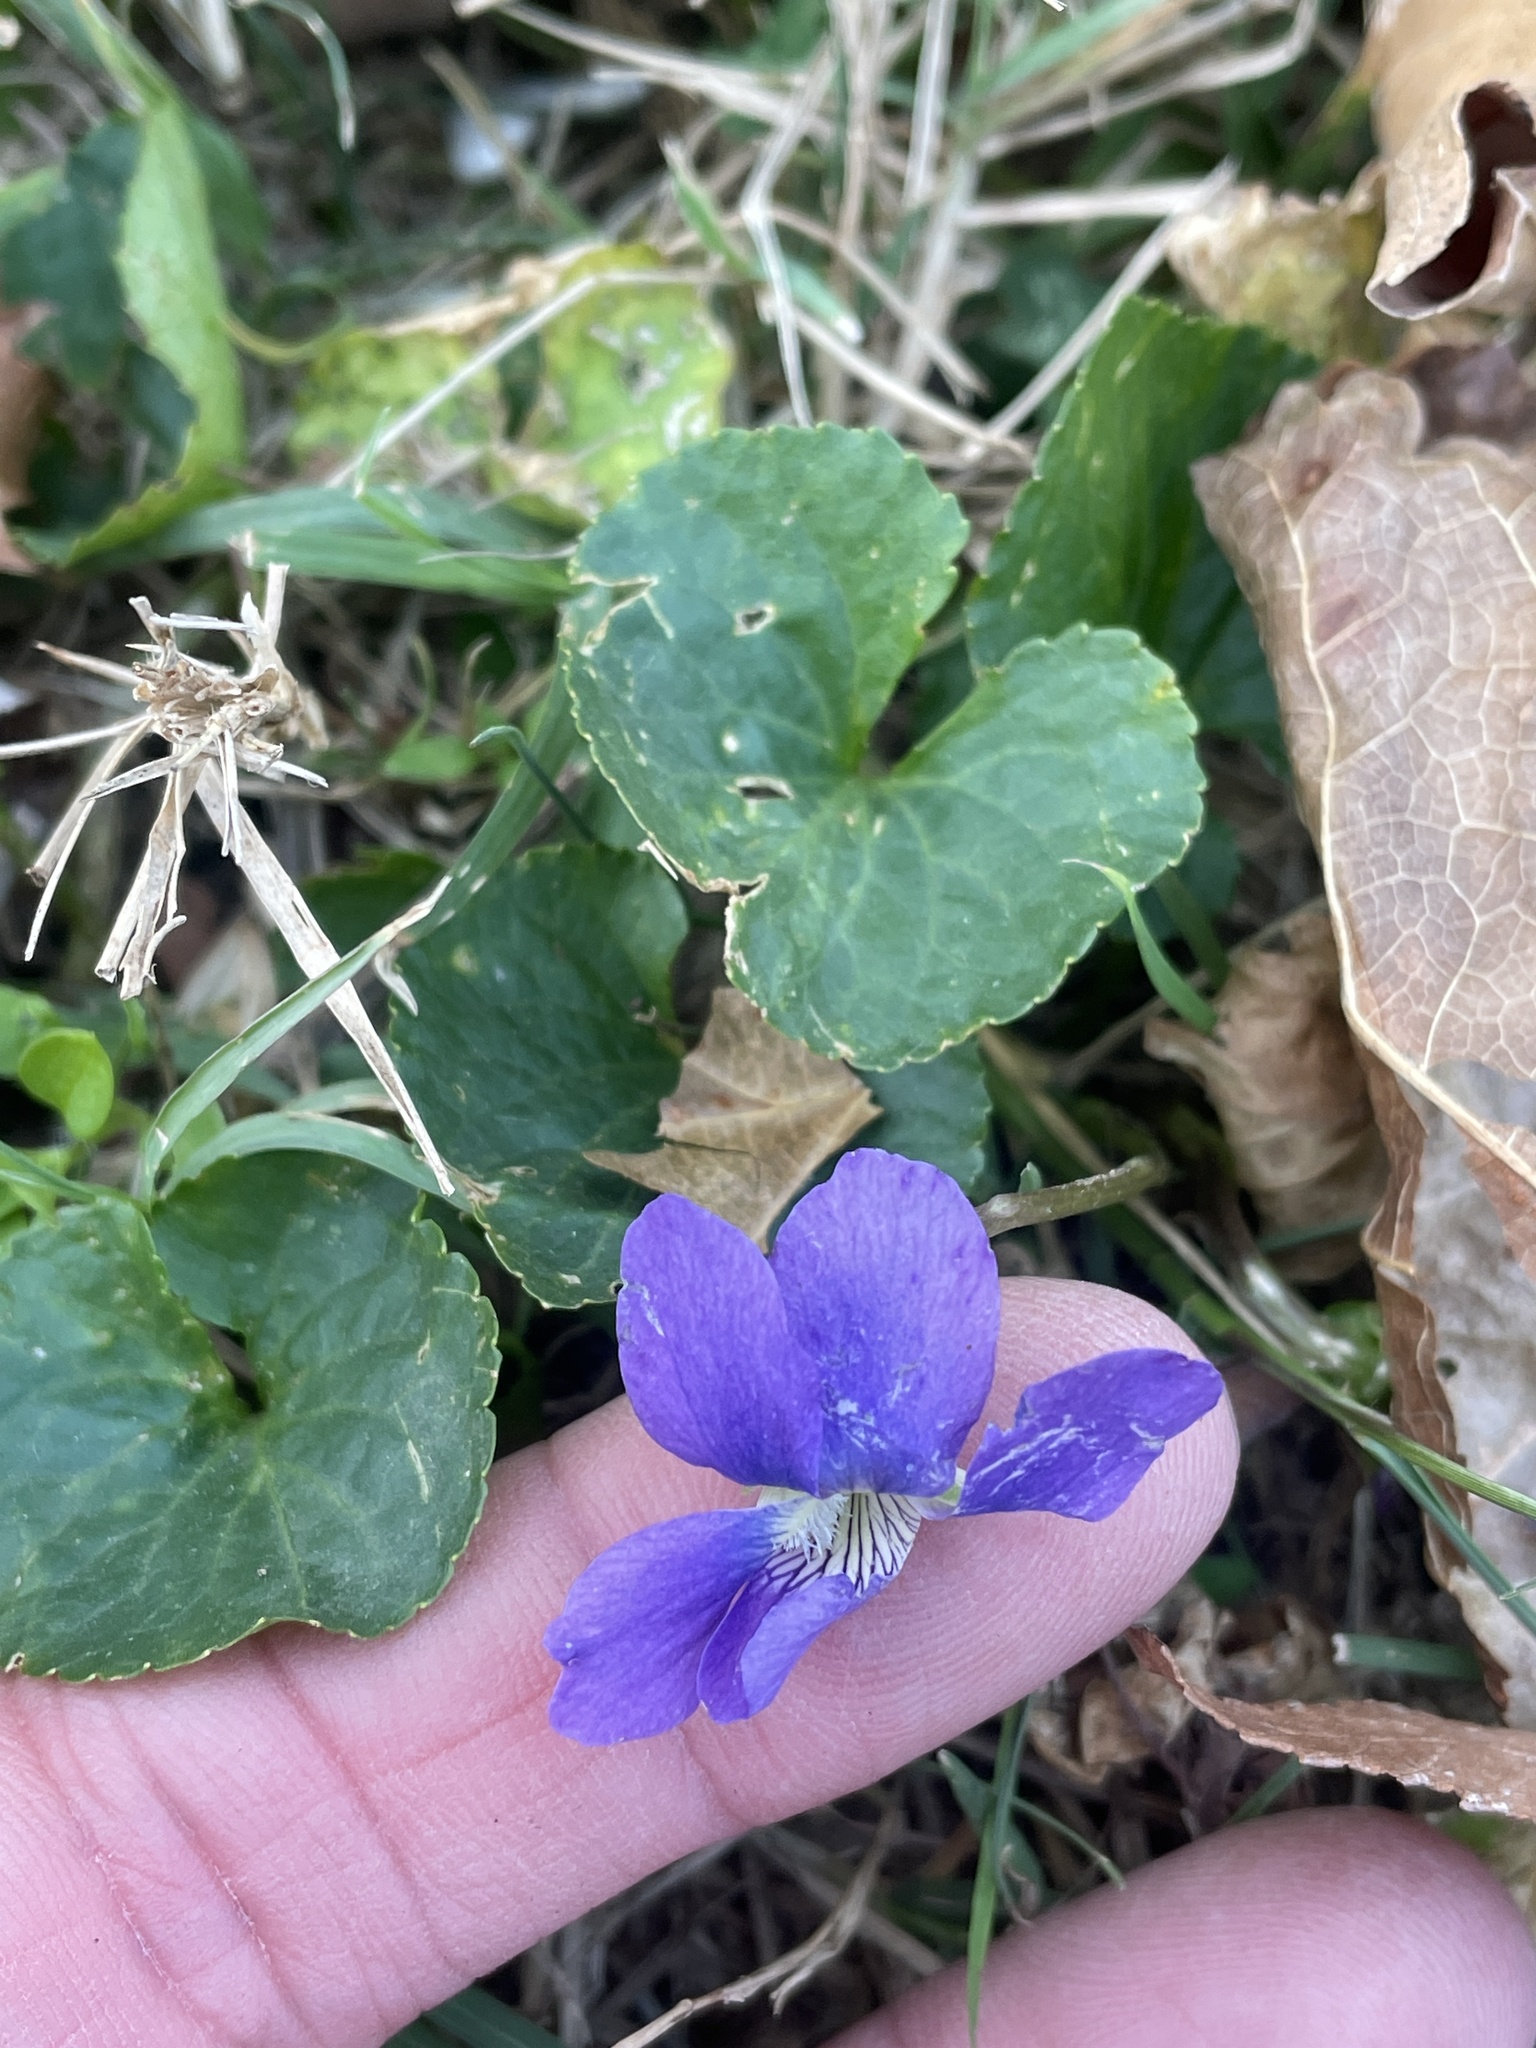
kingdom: Plantae
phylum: Tracheophyta
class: Magnoliopsida
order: Malpighiales
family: Violaceae
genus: Viola
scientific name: Viola sororia
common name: Dooryard violet
